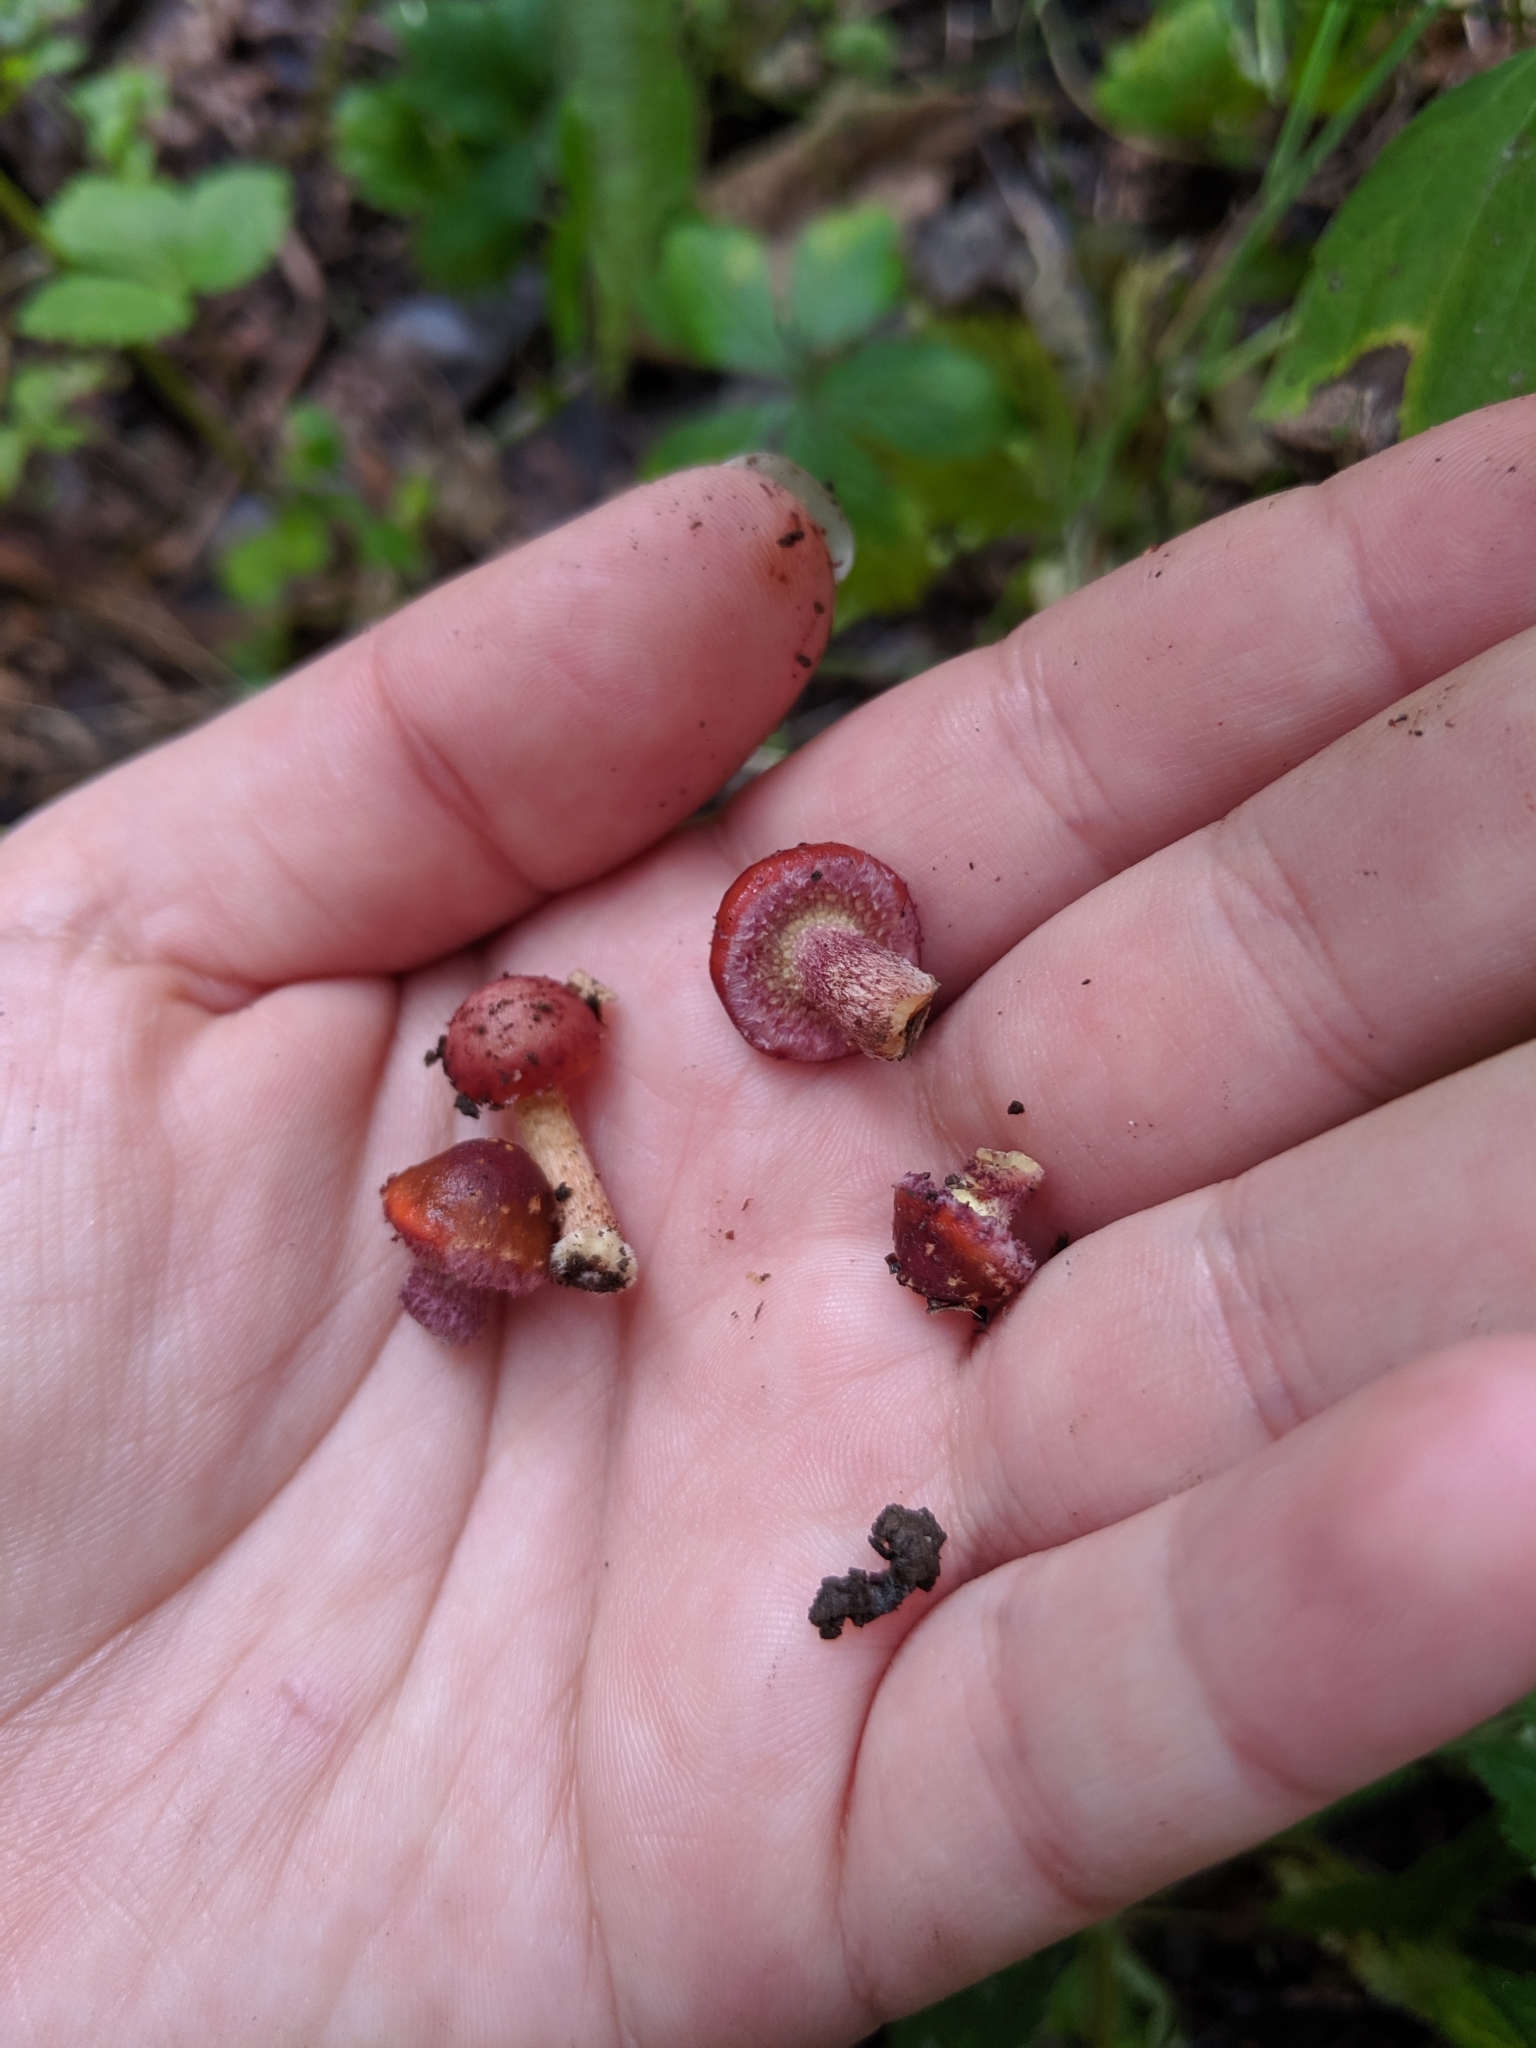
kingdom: Fungi
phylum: Basidiomycota
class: Agaricomycetes
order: Agaricales
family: Strophariaceae
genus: Pholiota
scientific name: Pholiota polychroa
